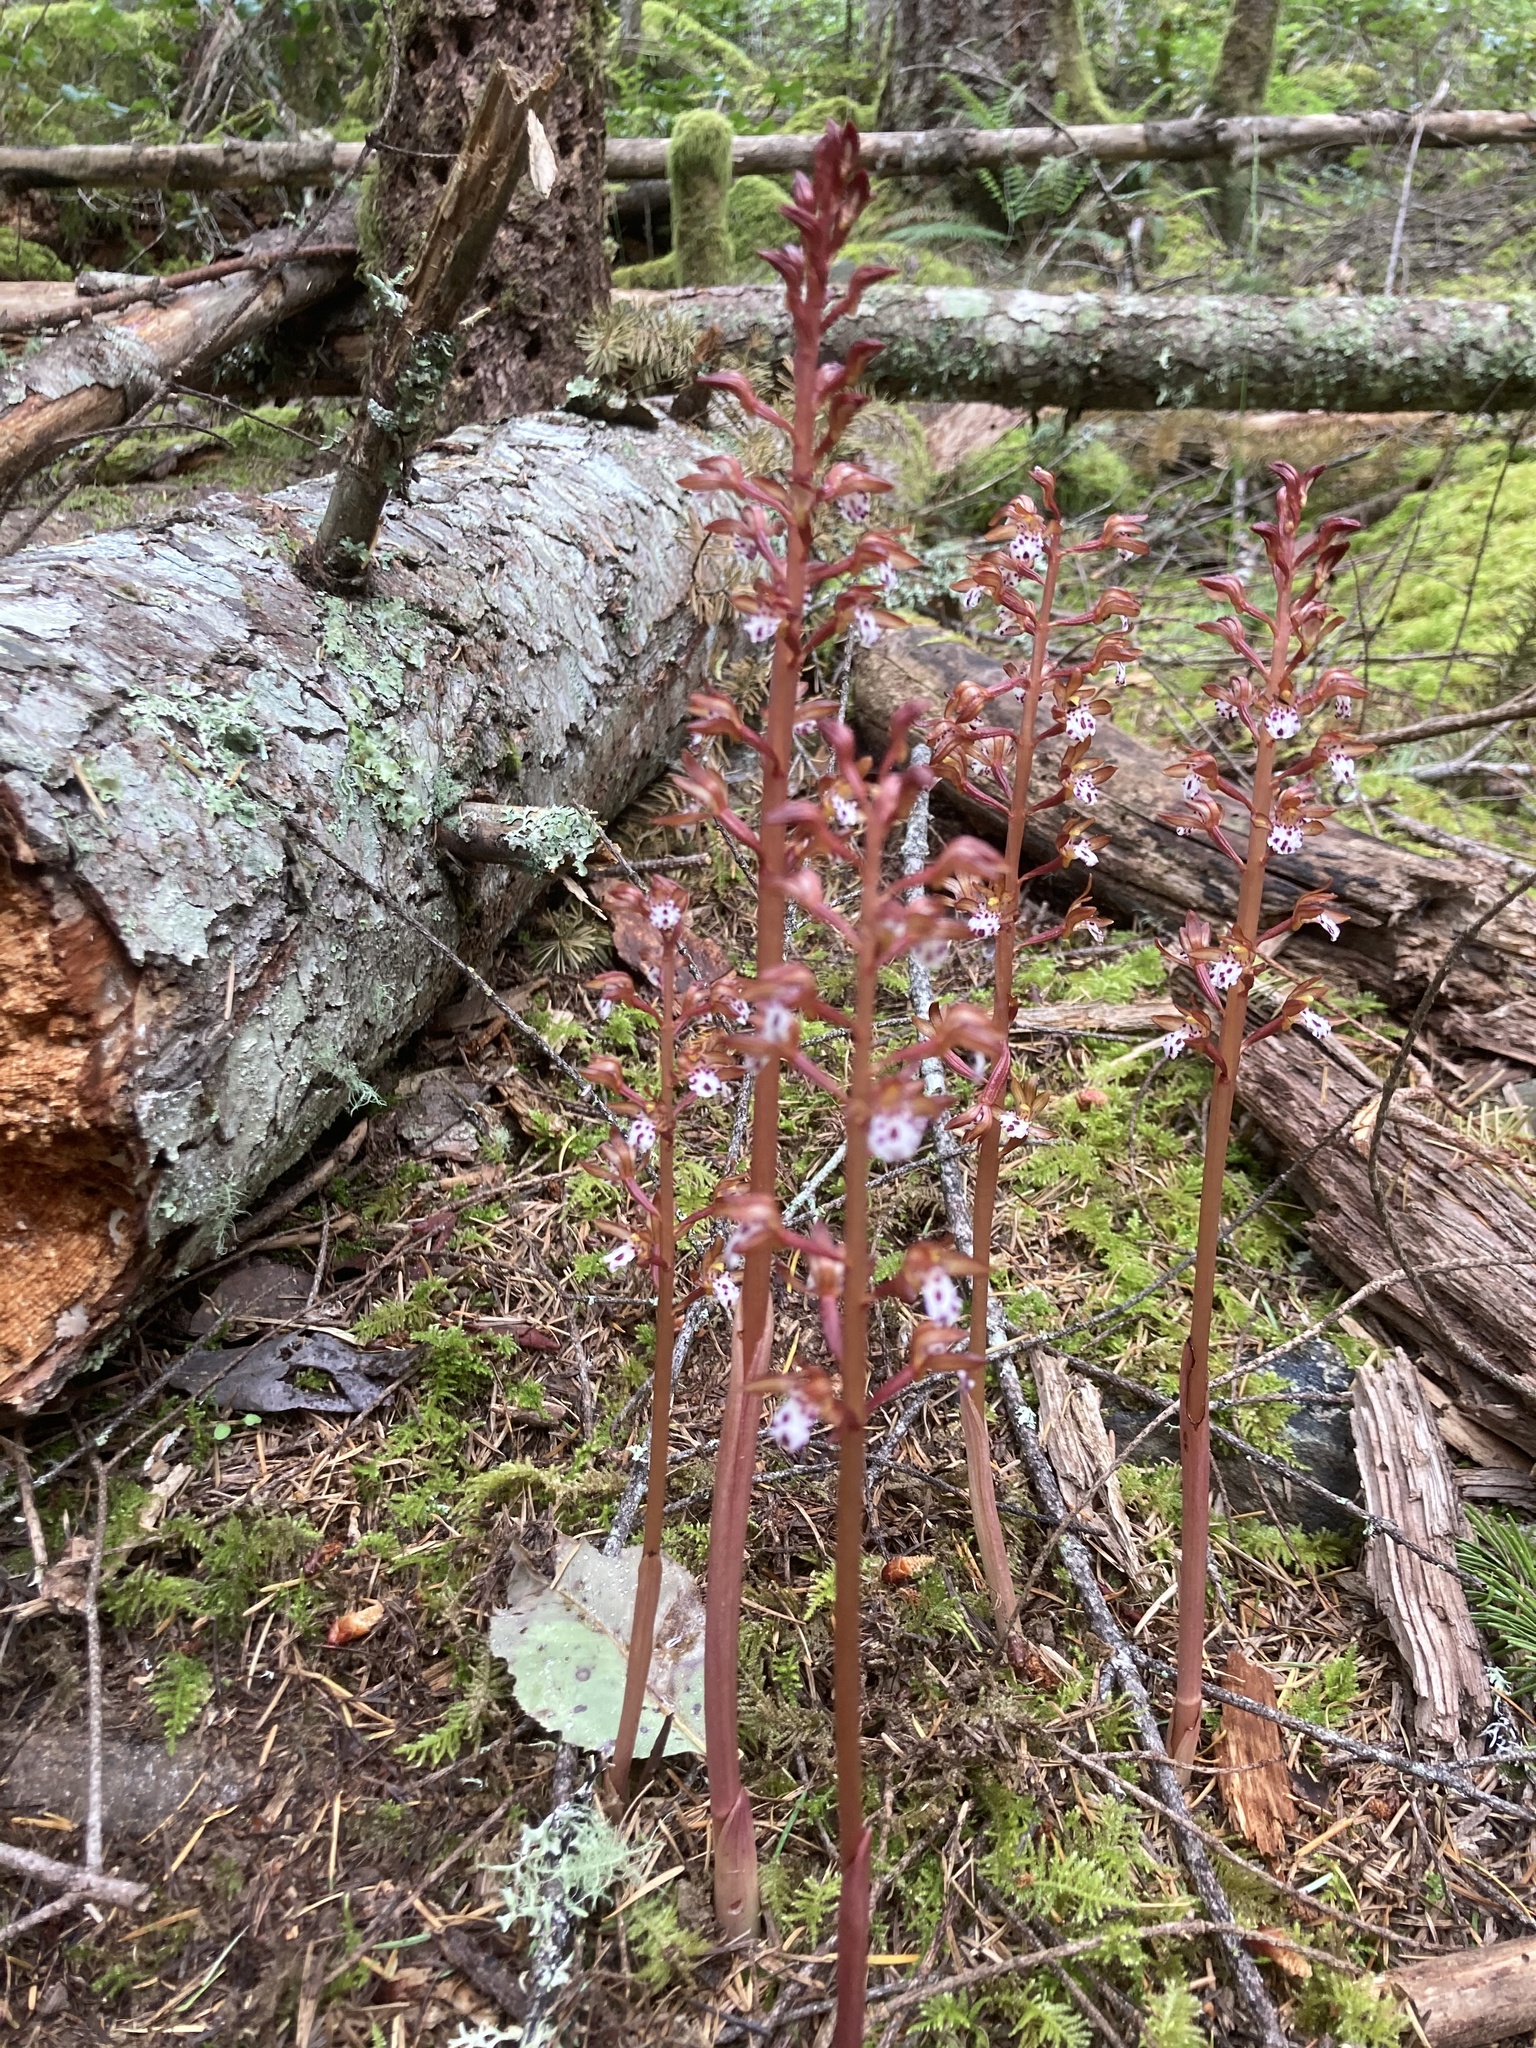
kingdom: Plantae
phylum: Tracheophyta
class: Liliopsida
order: Asparagales
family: Orchidaceae
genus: Corallorhiza
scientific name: Corallorhiza maculata
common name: Spotted coralroot
